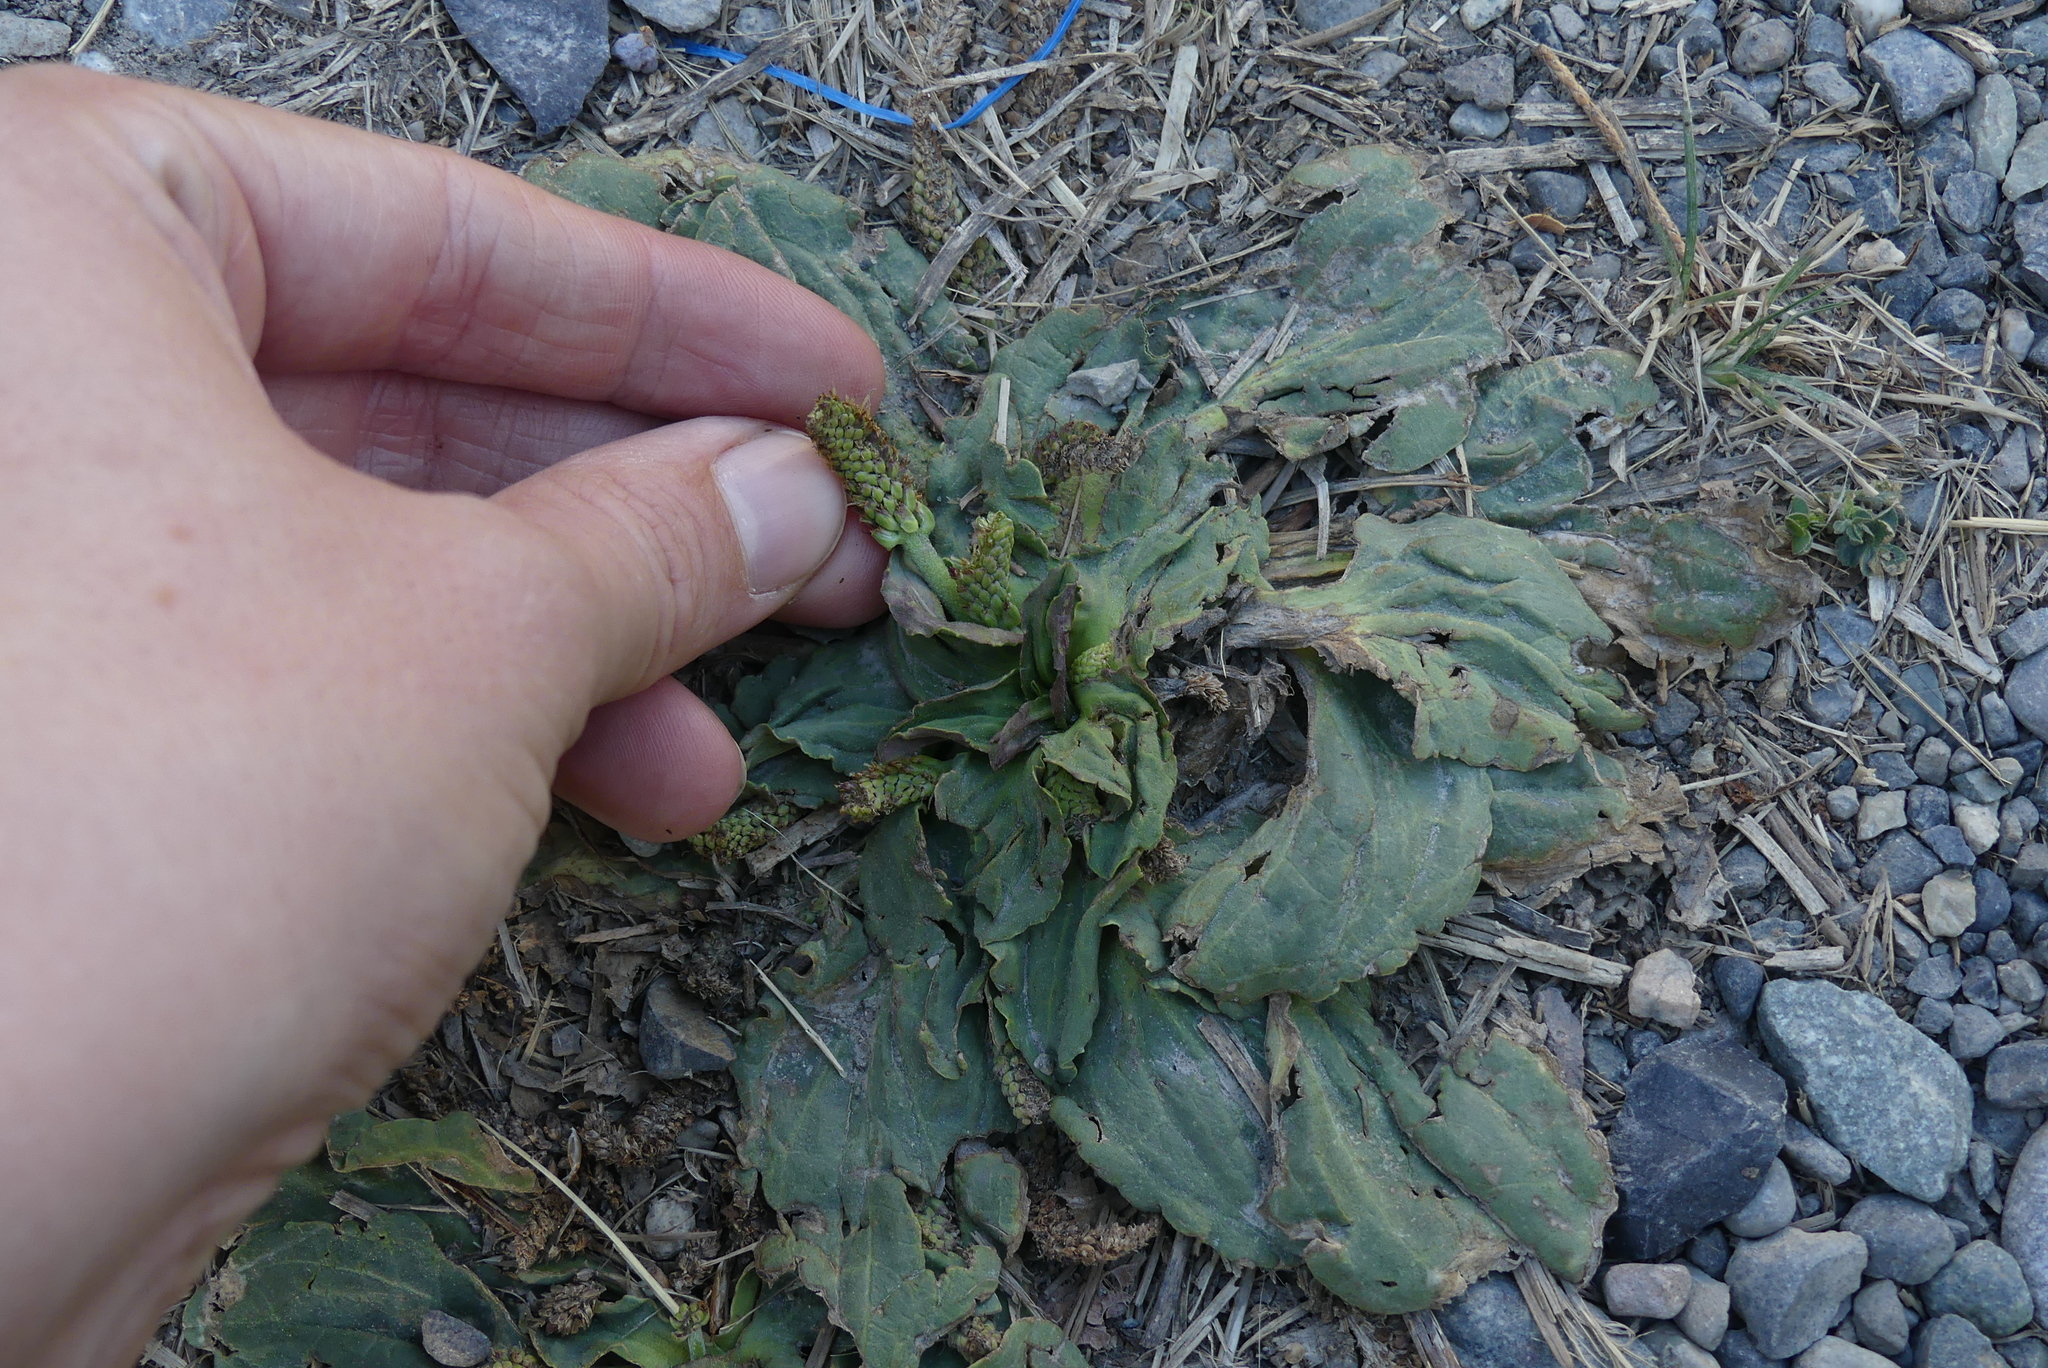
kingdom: Plantae
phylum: Tracheophyta
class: Magnoliopsida
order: Lamiales
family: Plantaginaceae
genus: Plantago
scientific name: Plantago major
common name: Common plantain
